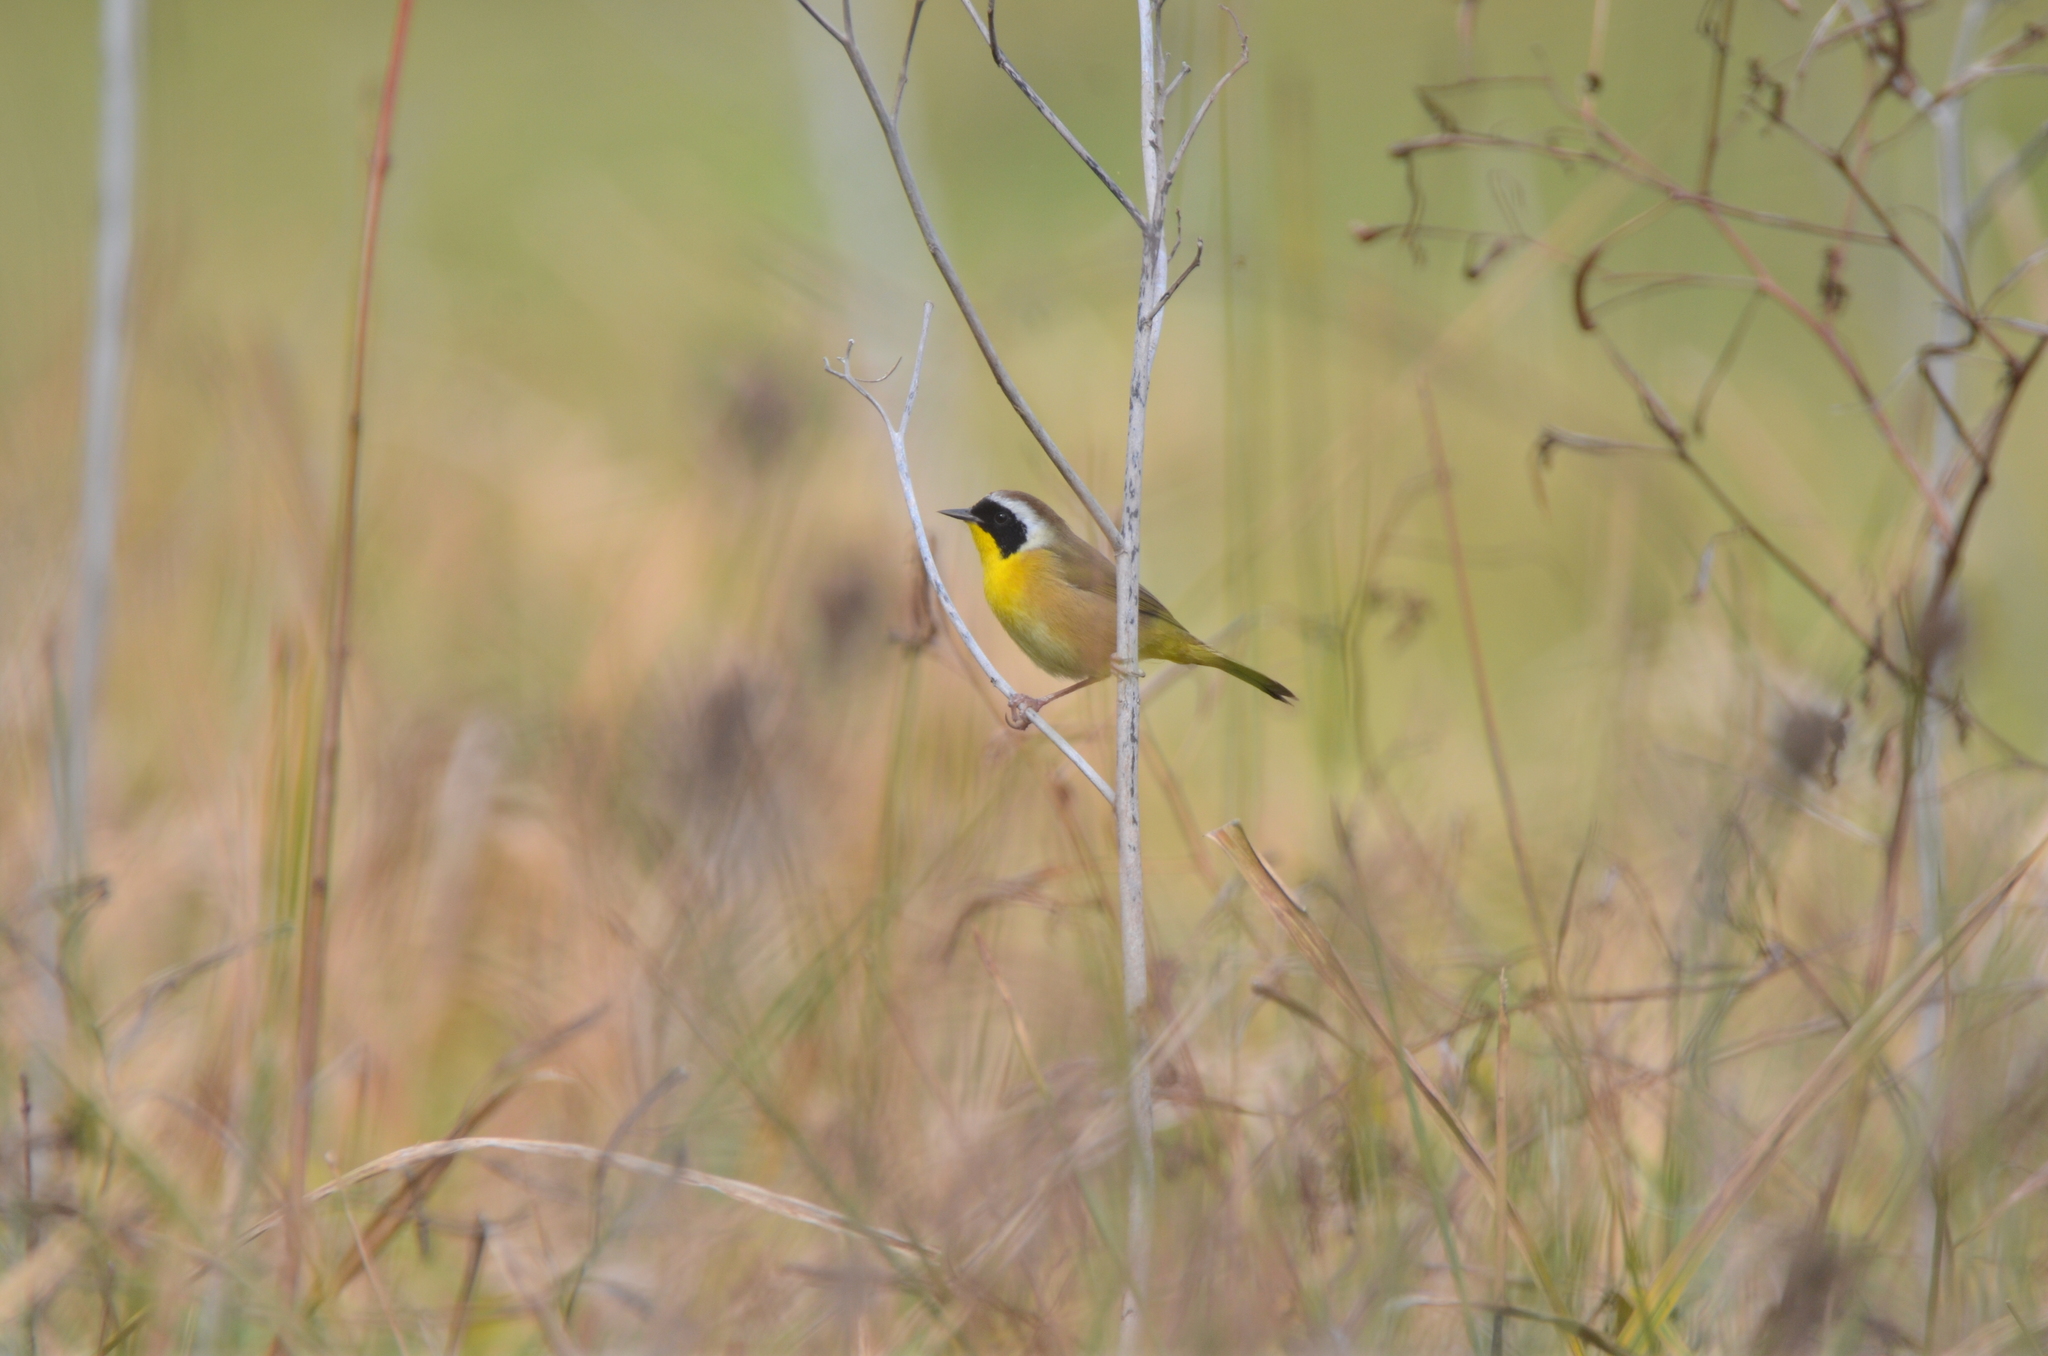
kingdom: Animalia
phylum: Chordata
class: Aves
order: Passeriformes
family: Parulidae
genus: Geothlypis
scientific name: Geothlypis trichas
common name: Common yellowthroat
